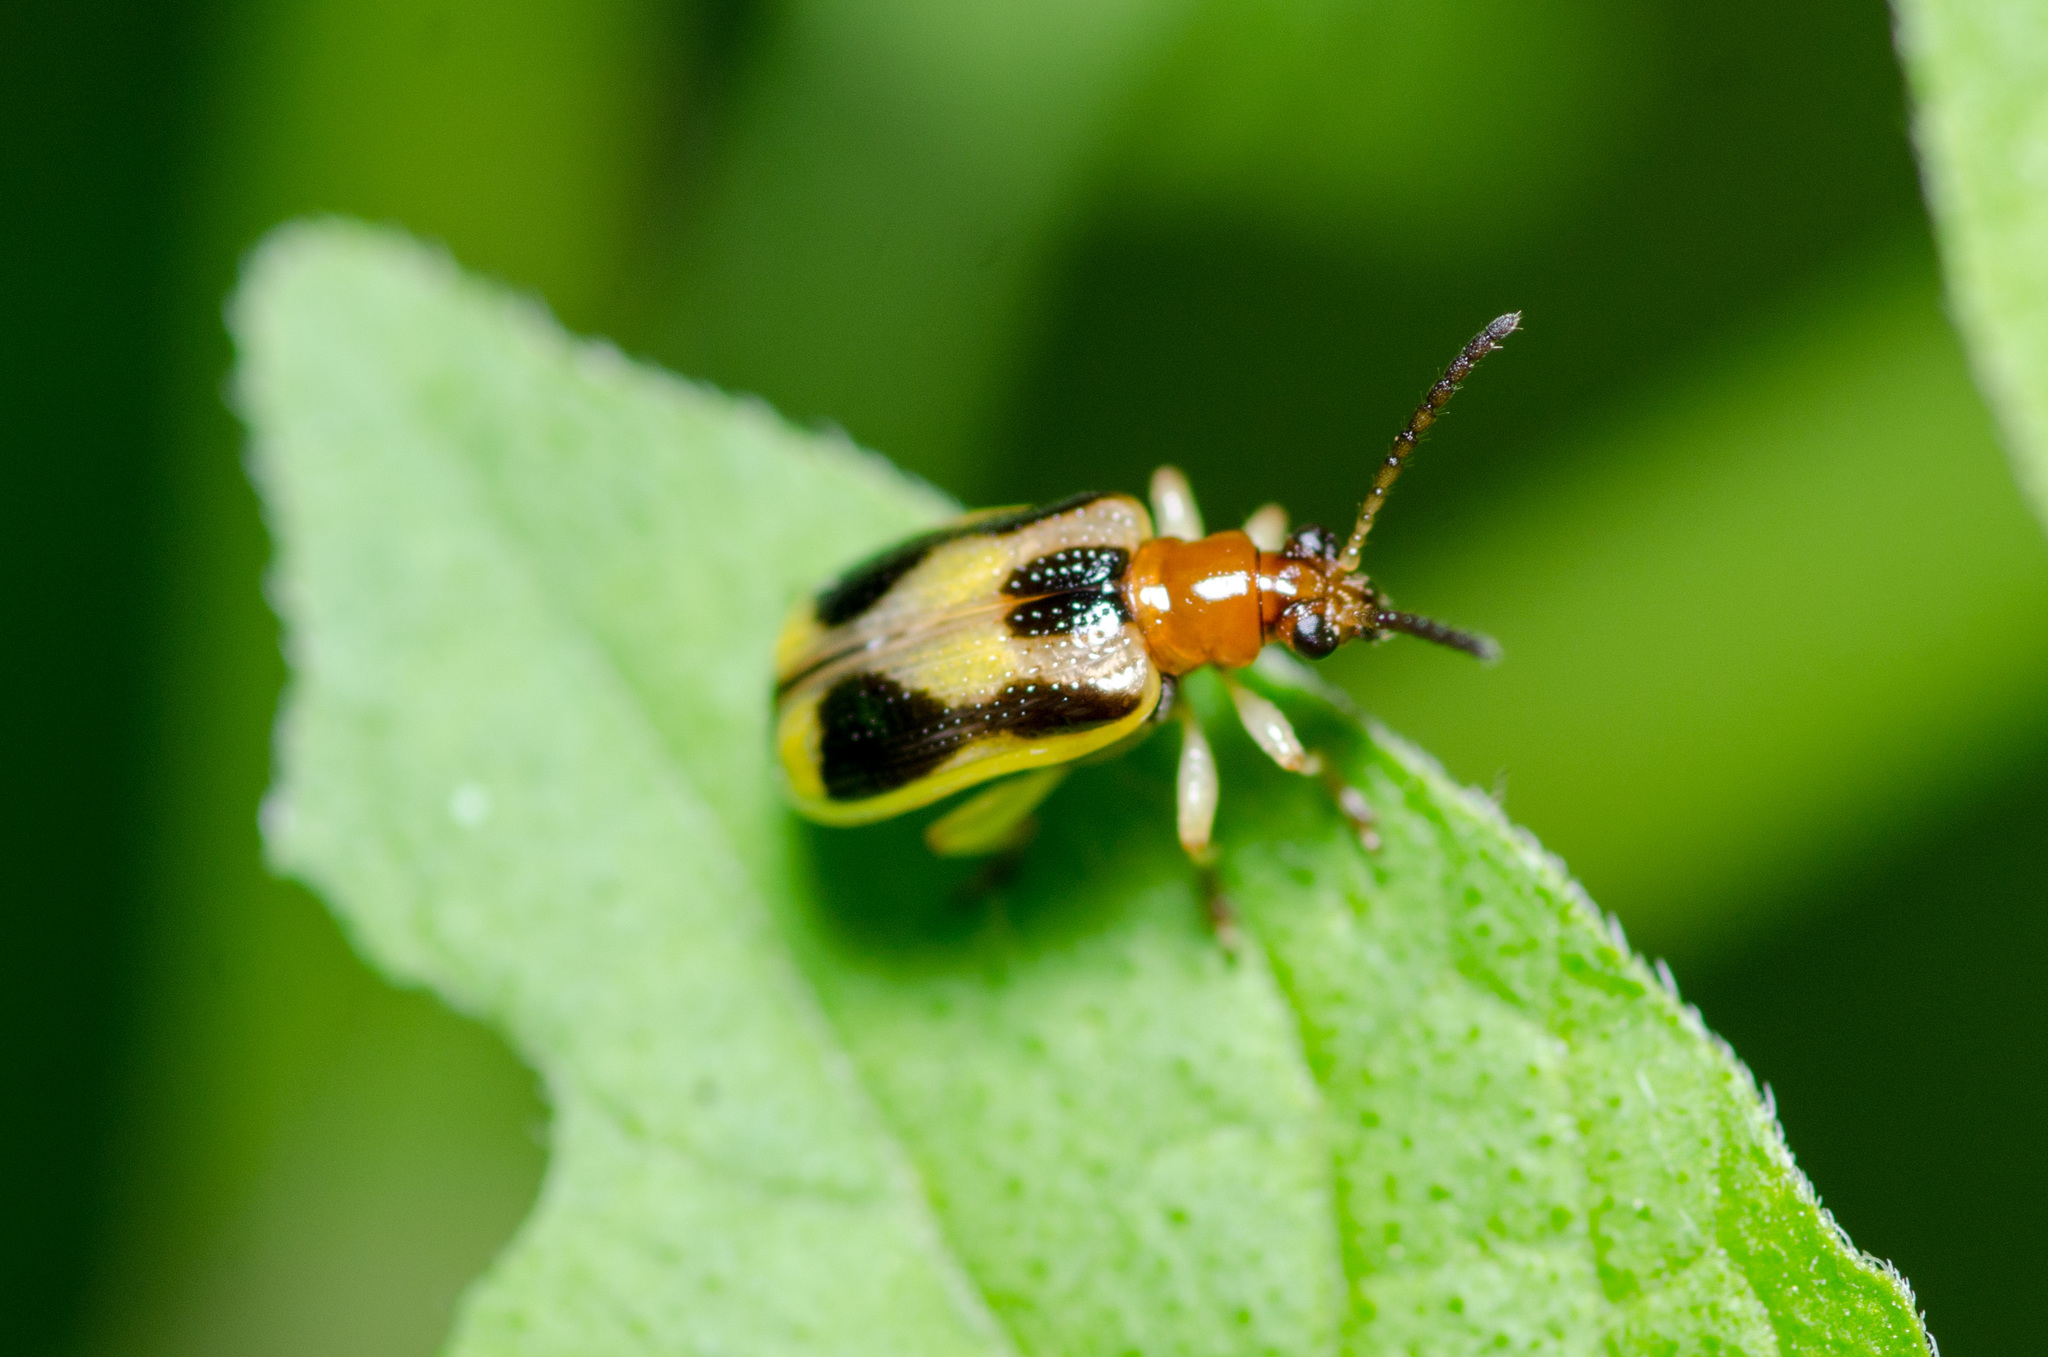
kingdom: Animalia
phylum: Arthropoda
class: Insecta
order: Coleoptera
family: Chrysomelidae
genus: Lema
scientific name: Lema opulenta
